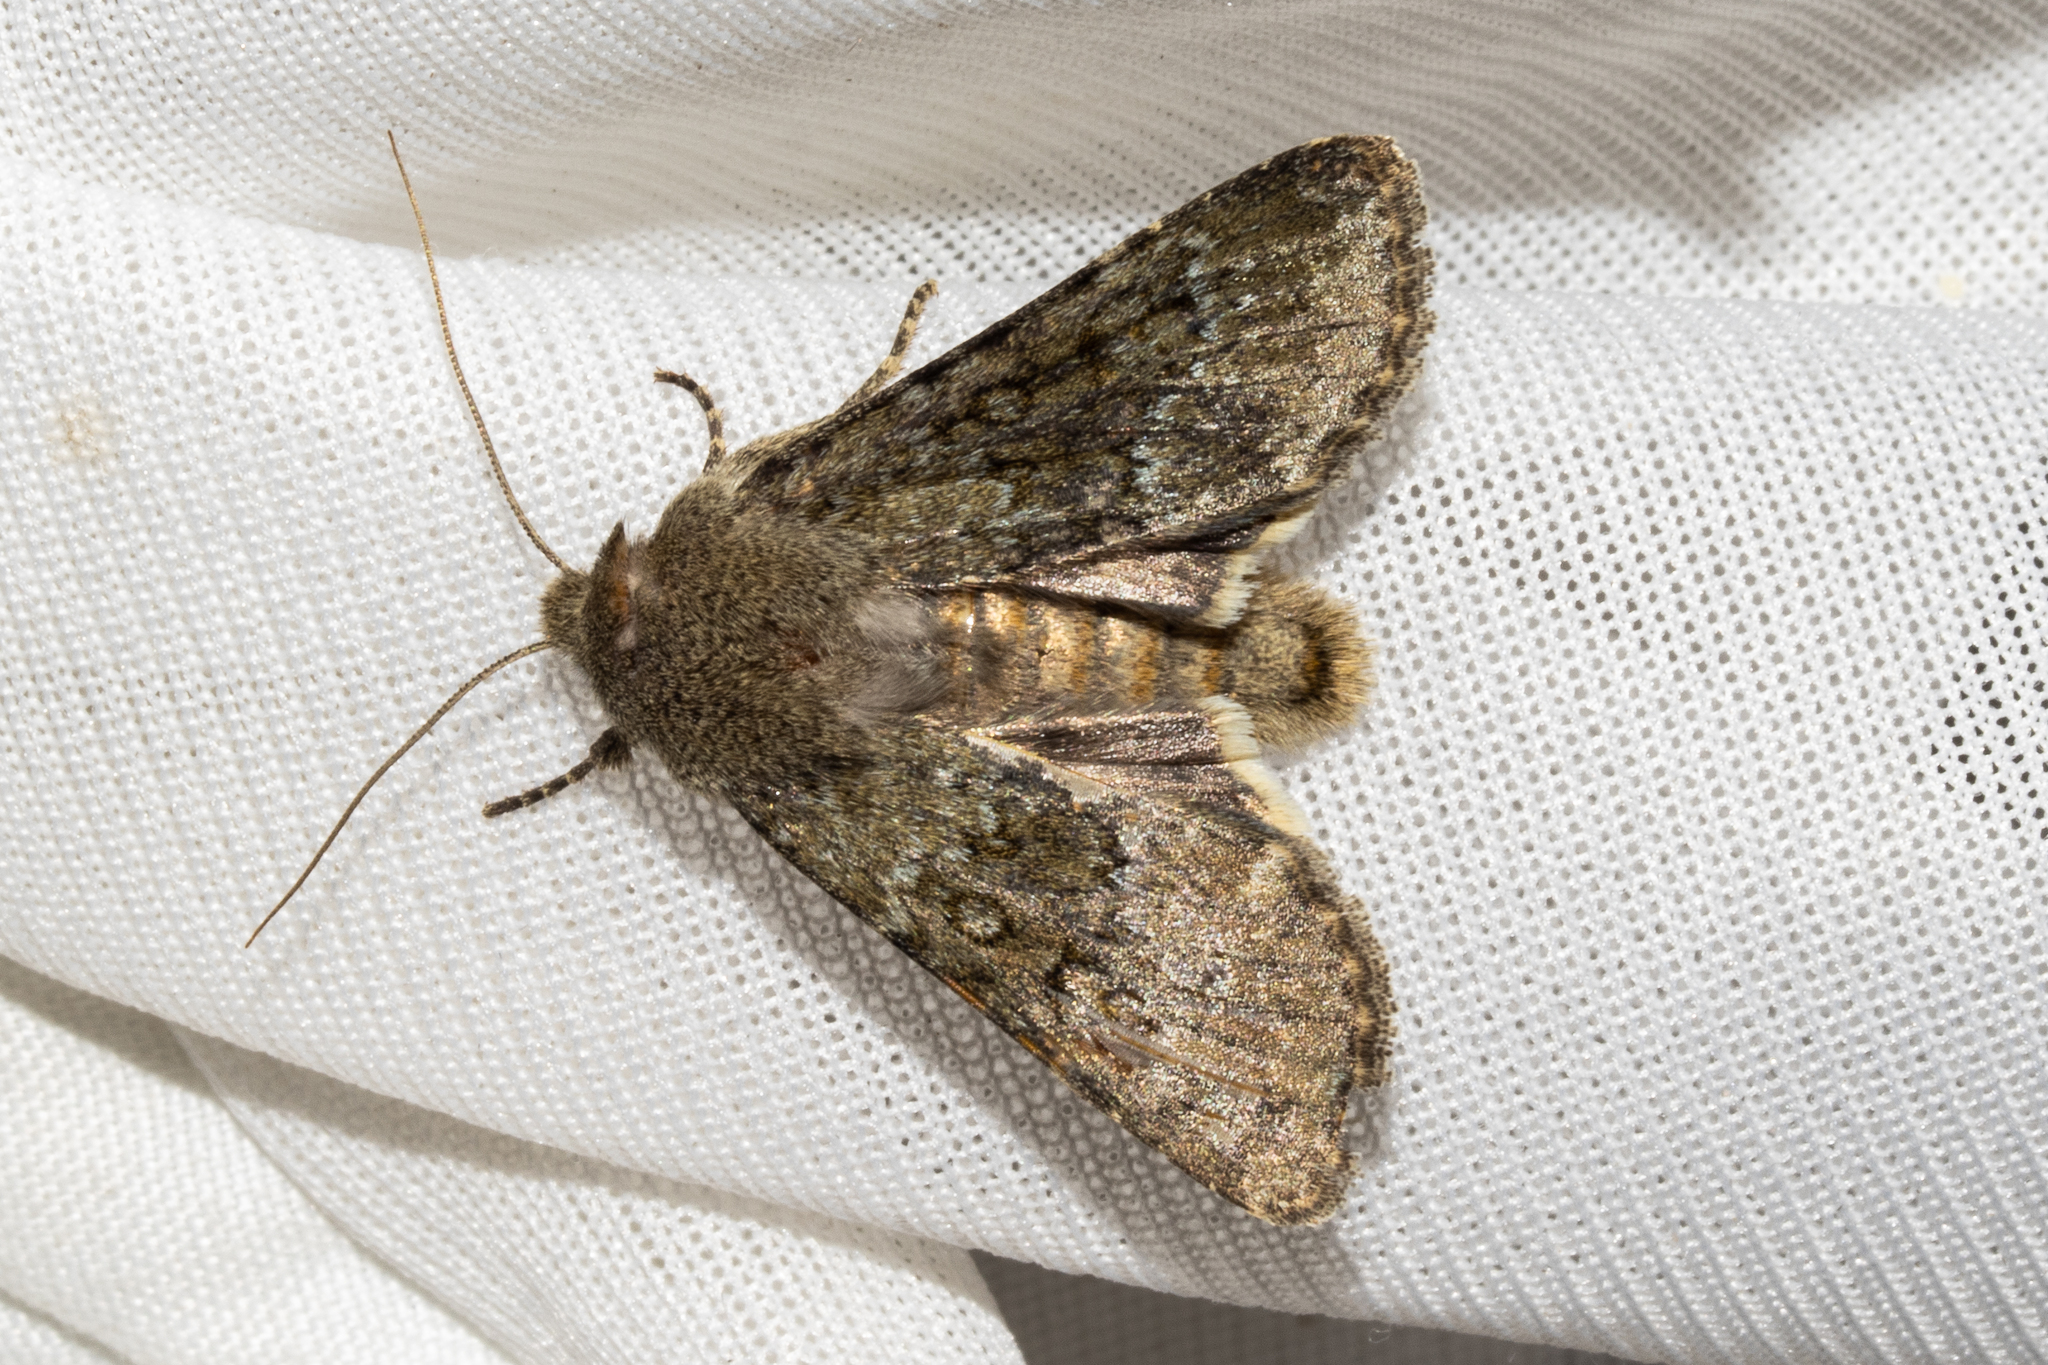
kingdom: Animalia
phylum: Arthropoda
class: Insecta
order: Lepidoptera
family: Noctuidae
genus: Ichneutica
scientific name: Ichneutica moderata
